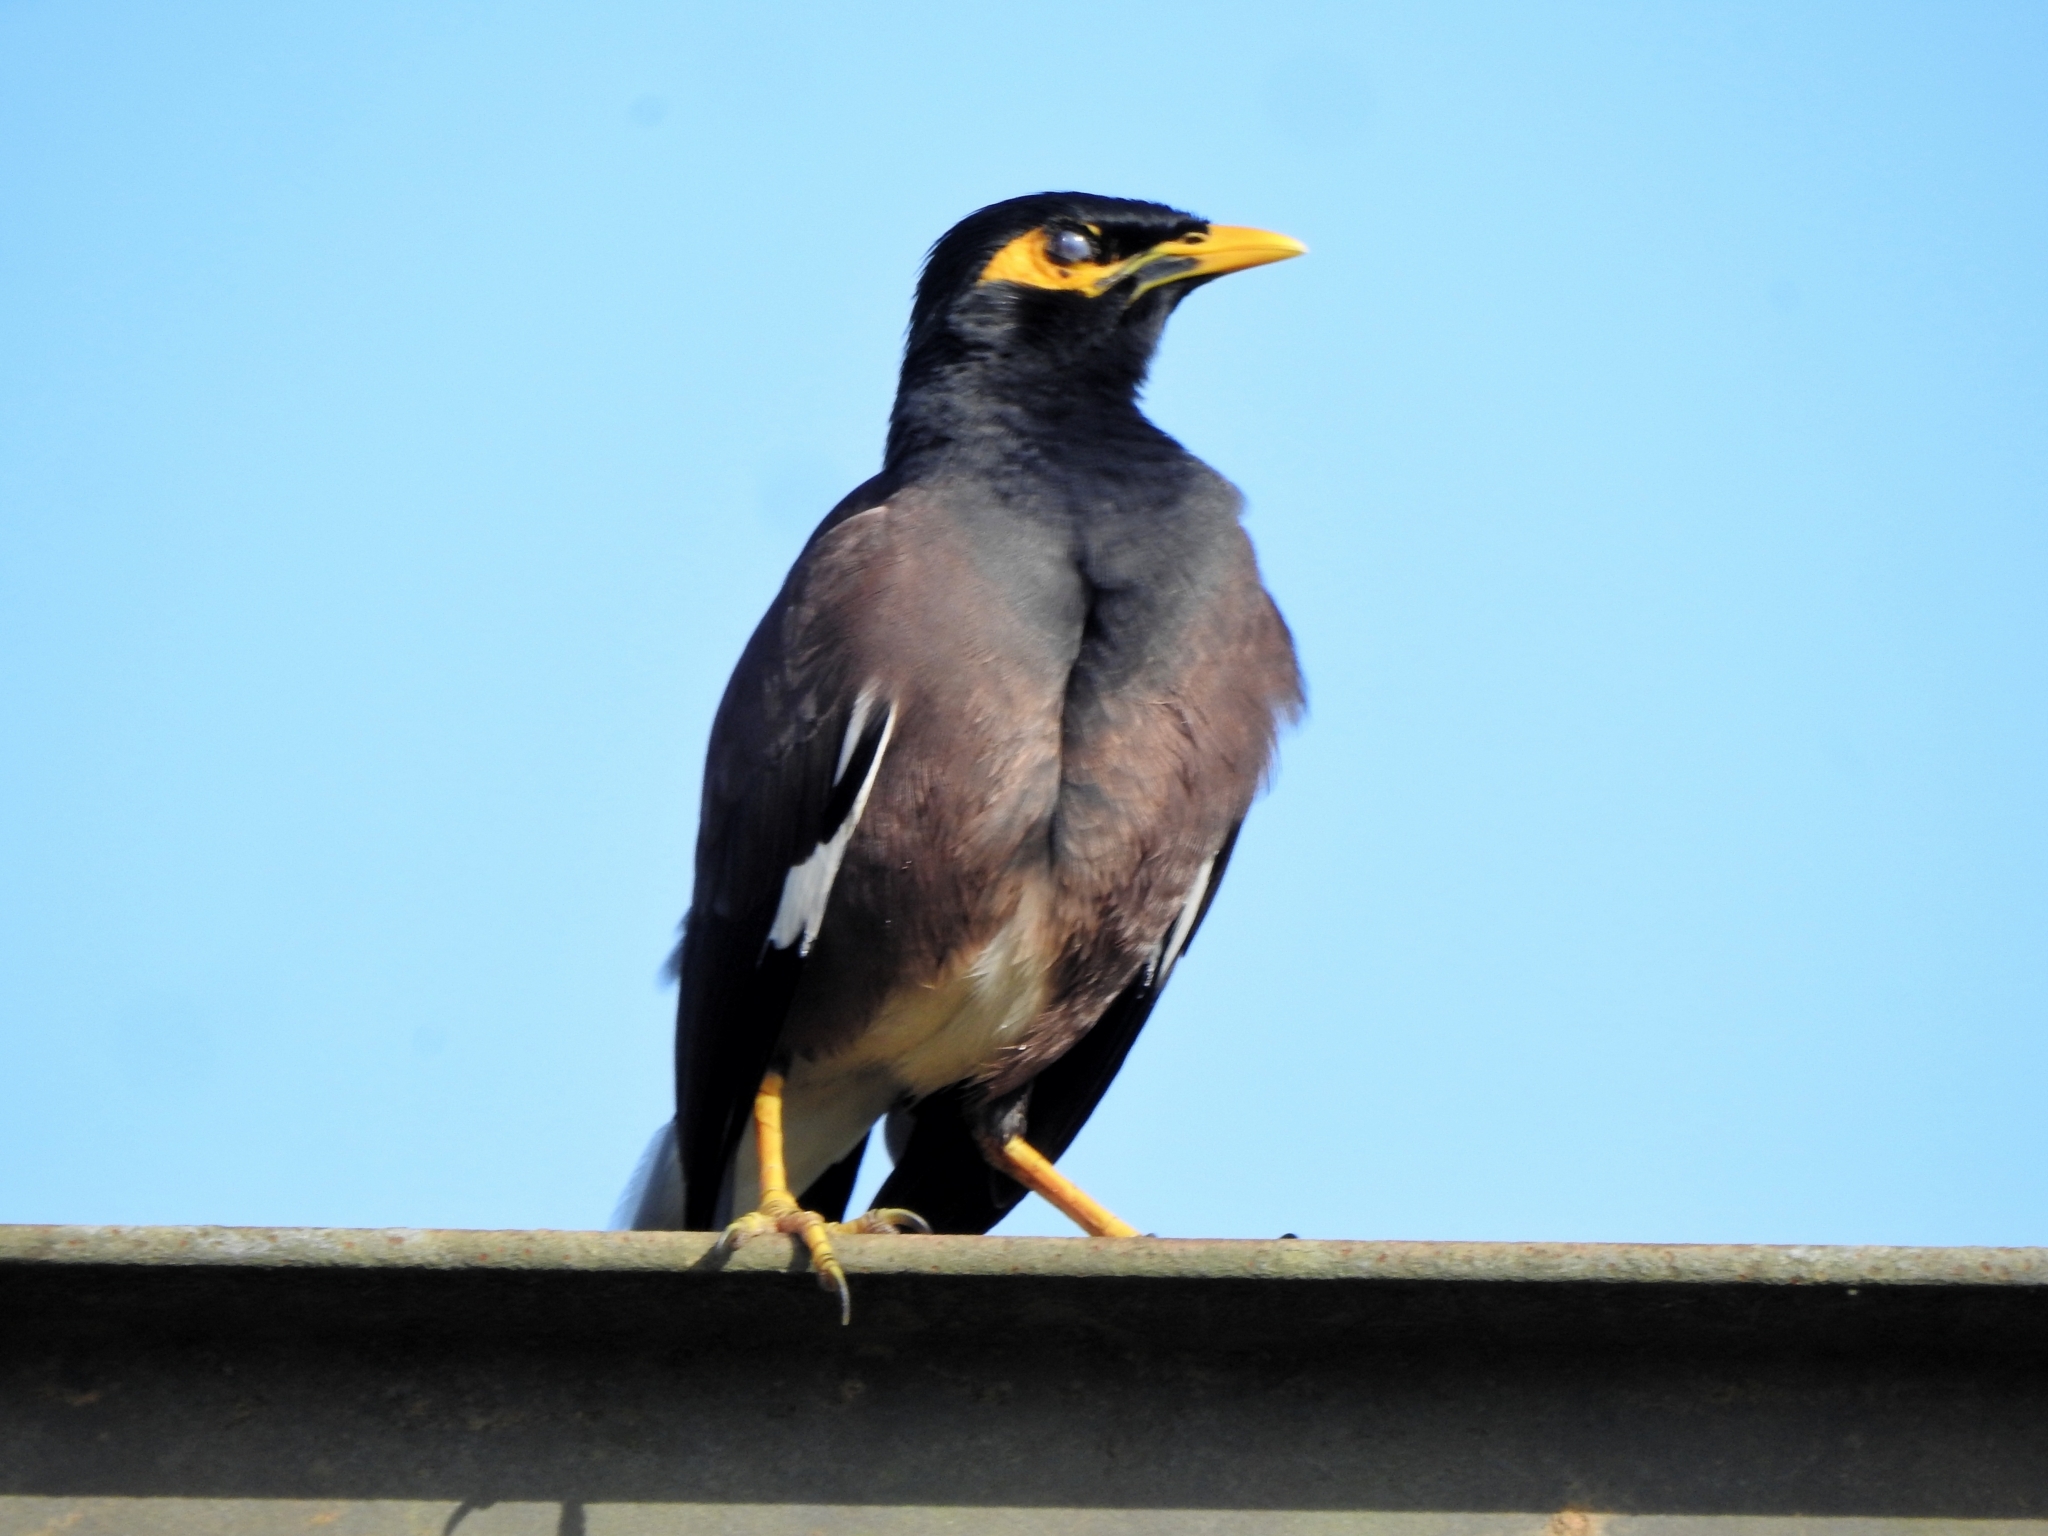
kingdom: Animalia
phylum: Chordata
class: Aves
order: Passeriformes
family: Sturnidae
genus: Acridotheres
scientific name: Acridotheres tristis
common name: Common myna
